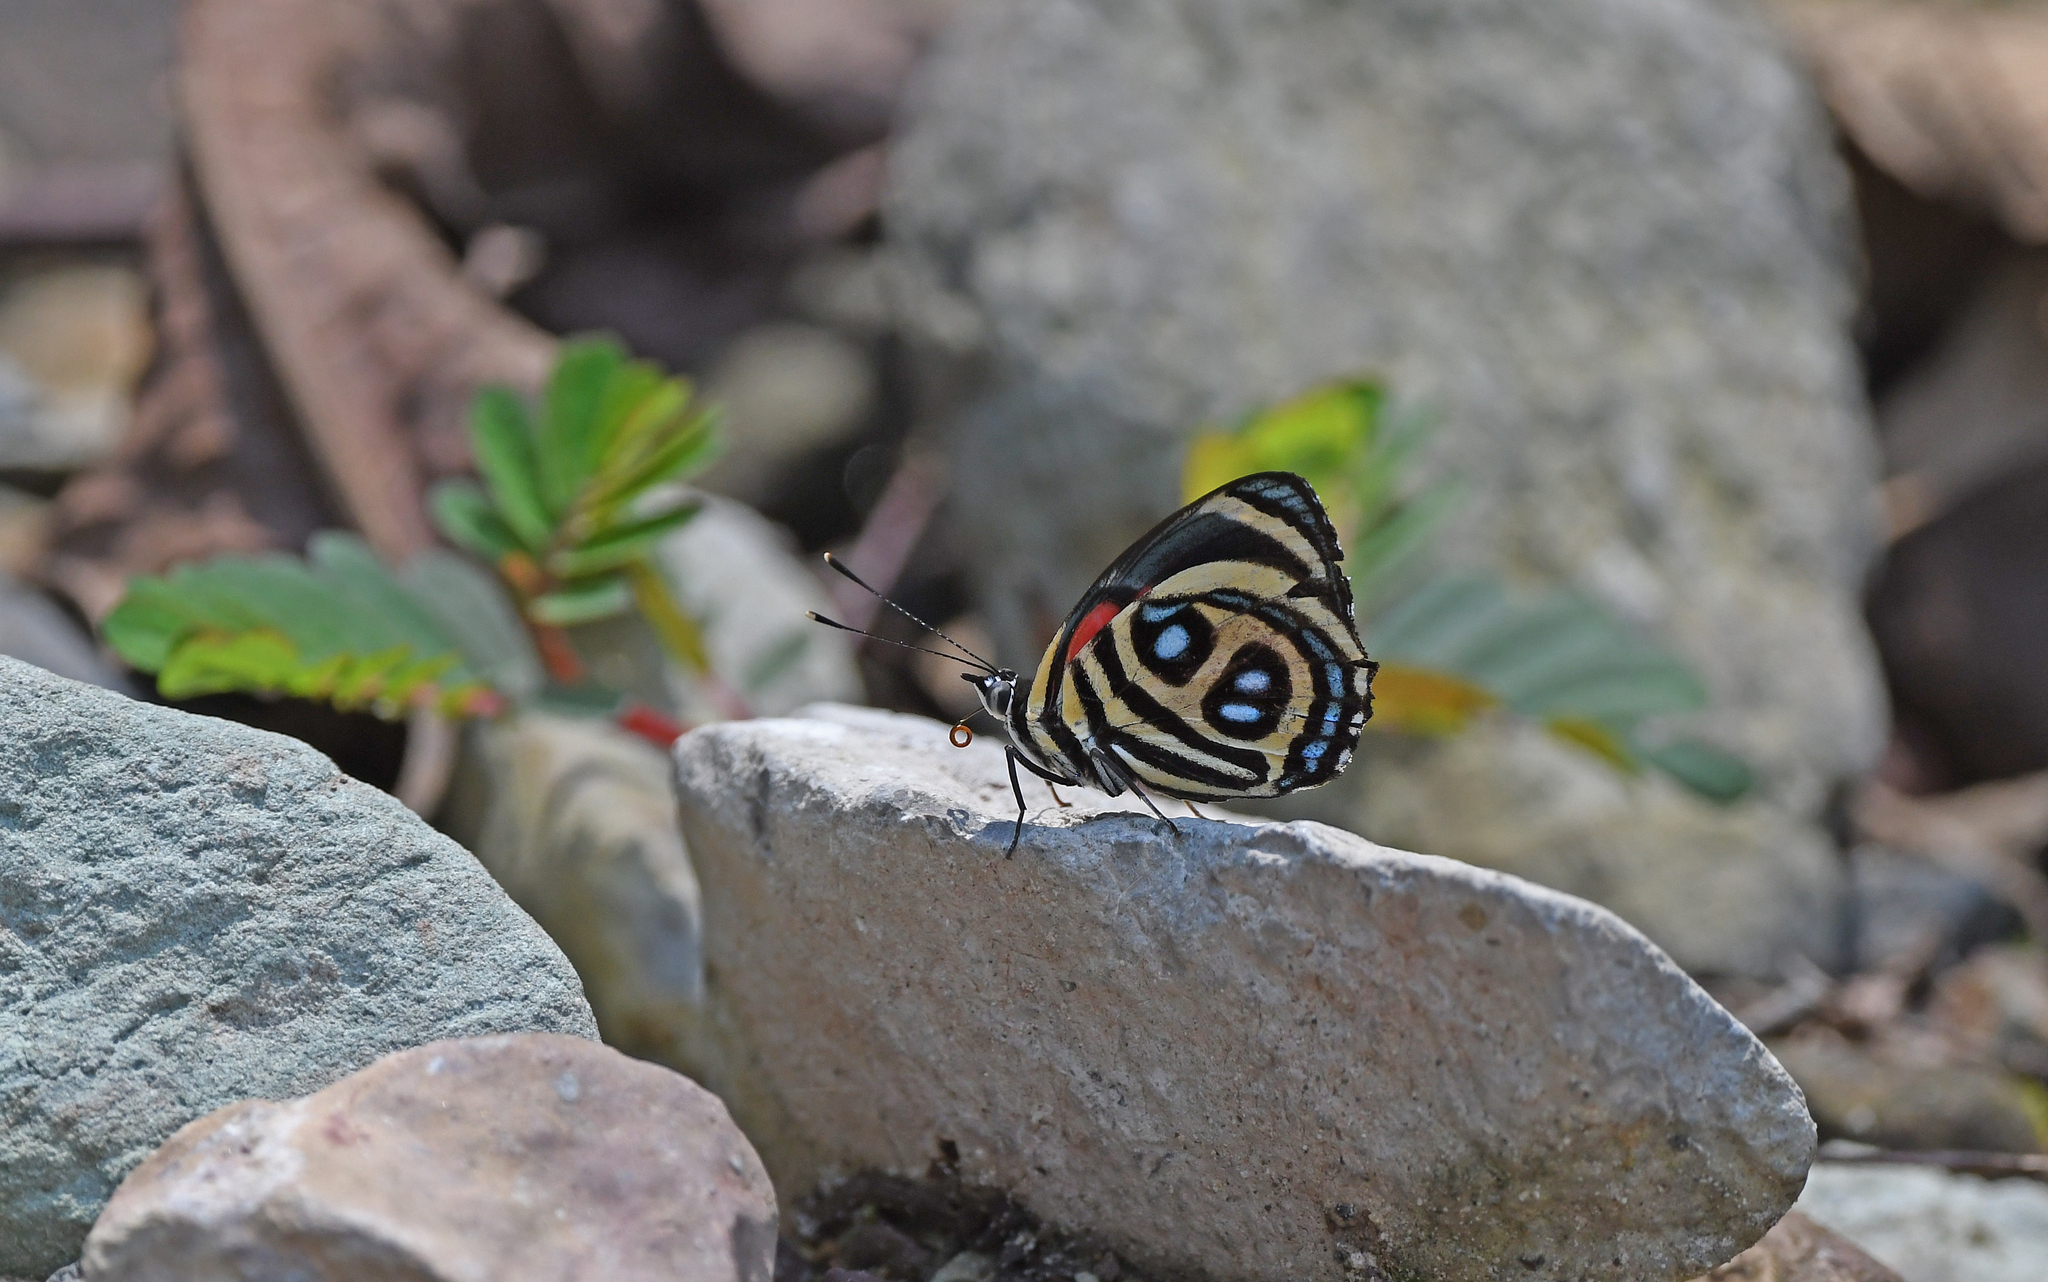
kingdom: Animalia
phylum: Arthropoda
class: Insecta
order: Lepidoptera
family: Nymphalidae
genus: Catagramma
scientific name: Catagramma pyracmon
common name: Google-eyed eighty-eight
